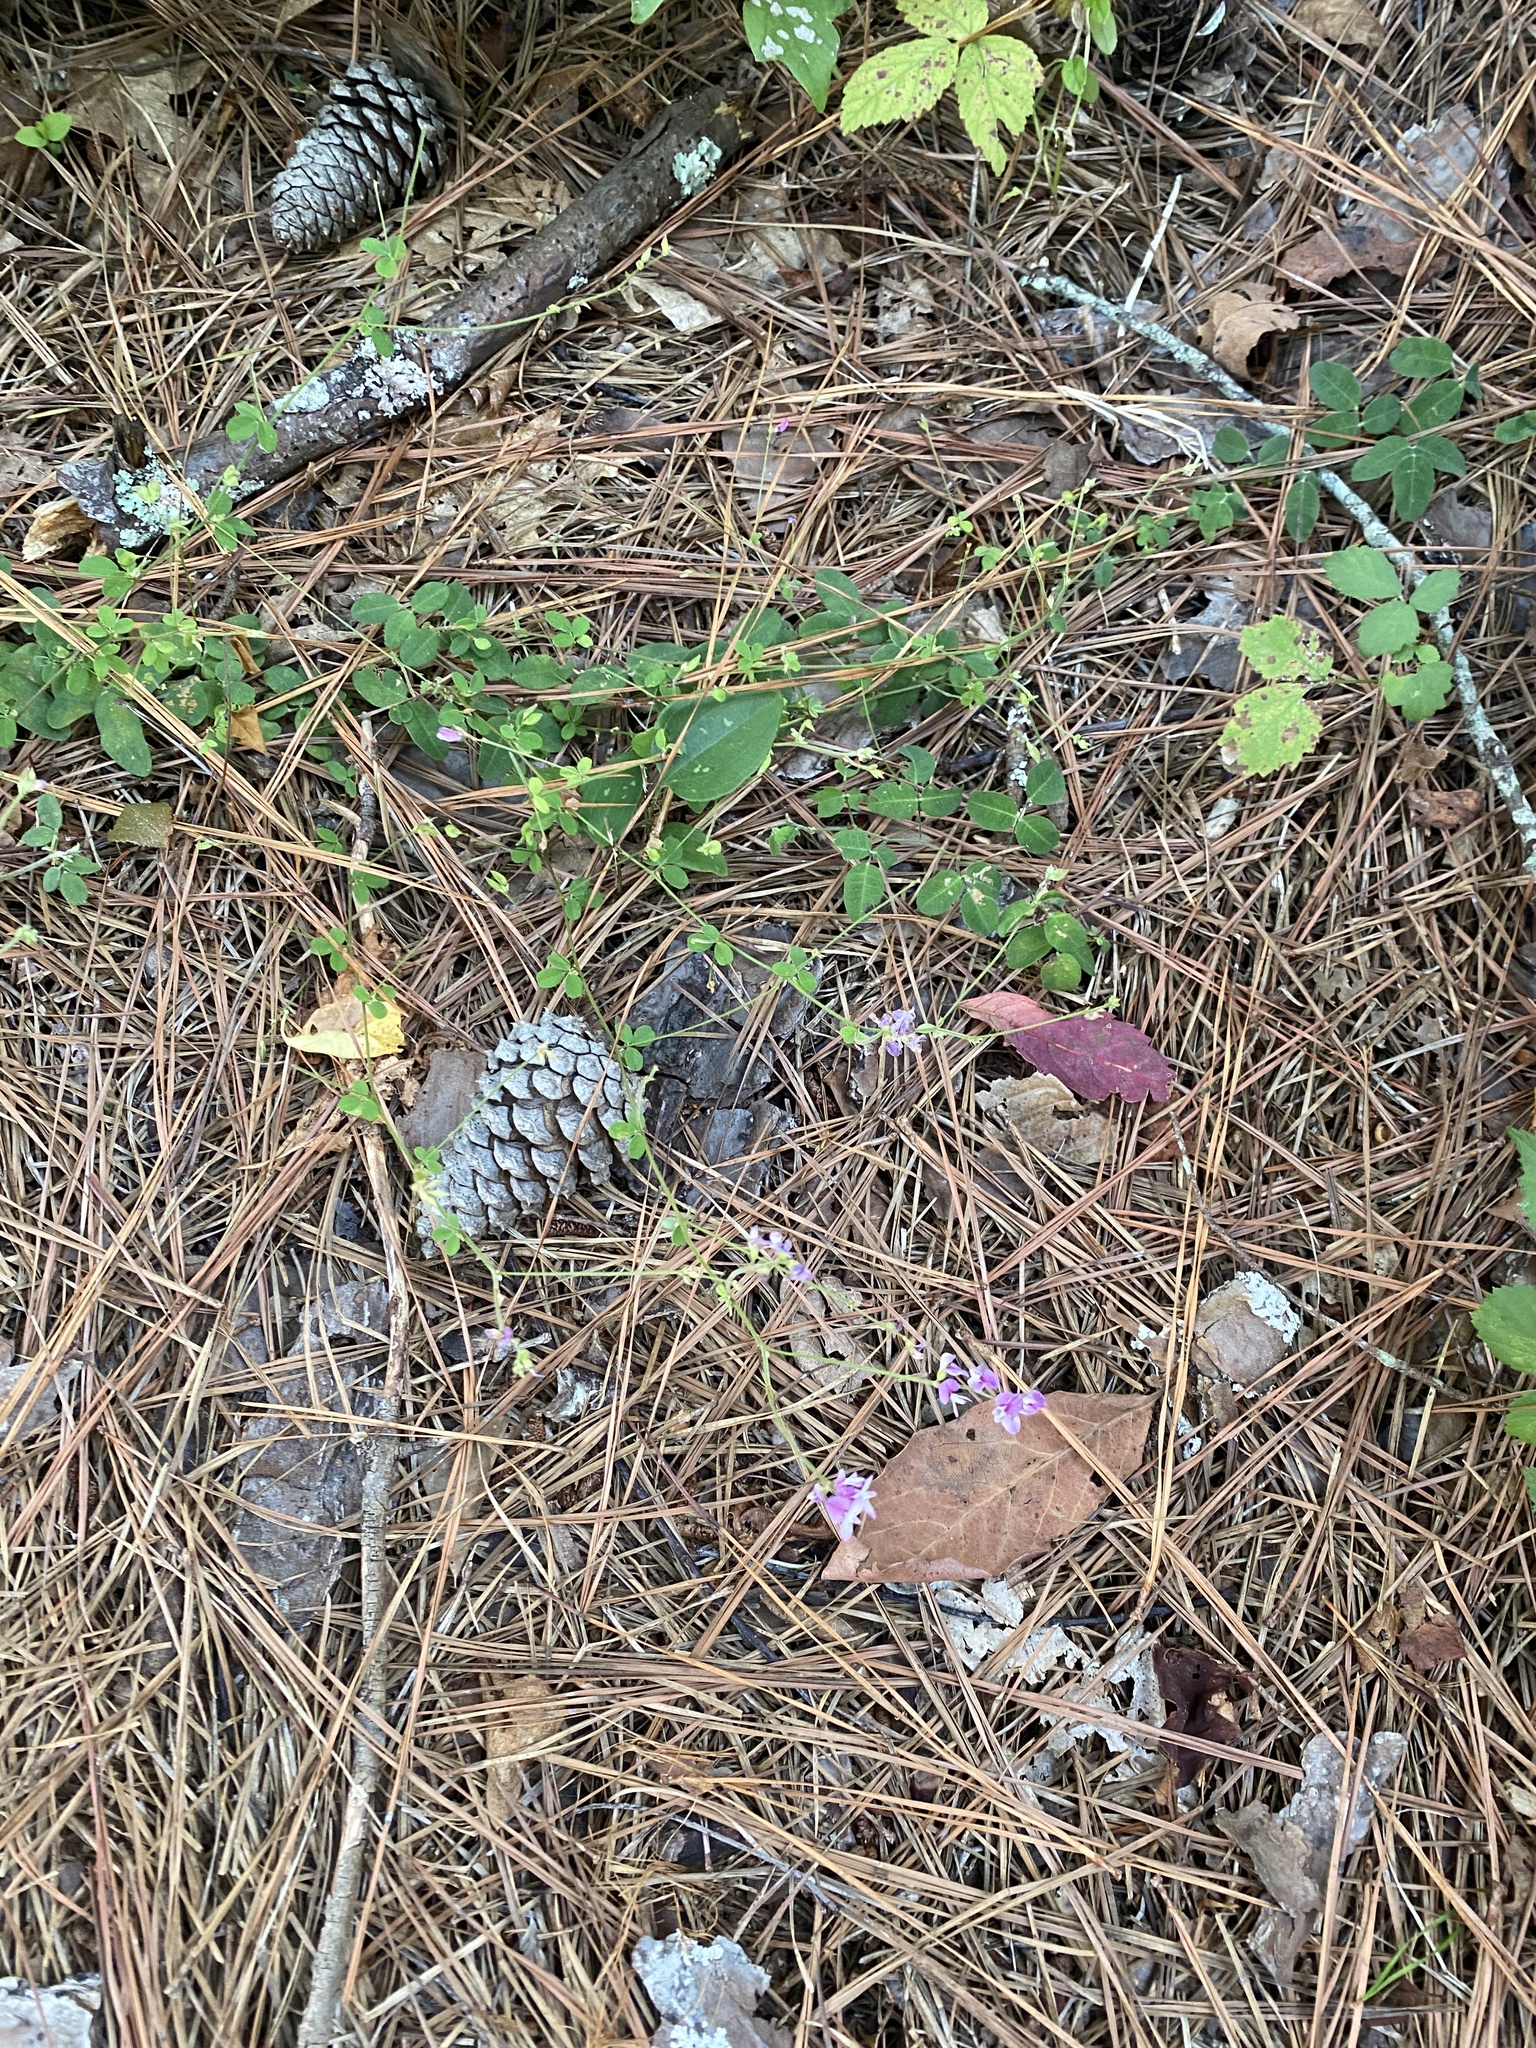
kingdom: Plantae
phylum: Tracheophyta
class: Magnoliopsida
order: Fabales
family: Fabaceae
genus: Lespedeza
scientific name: Lespedeza procumbens
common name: Downy trailing bush-clover
